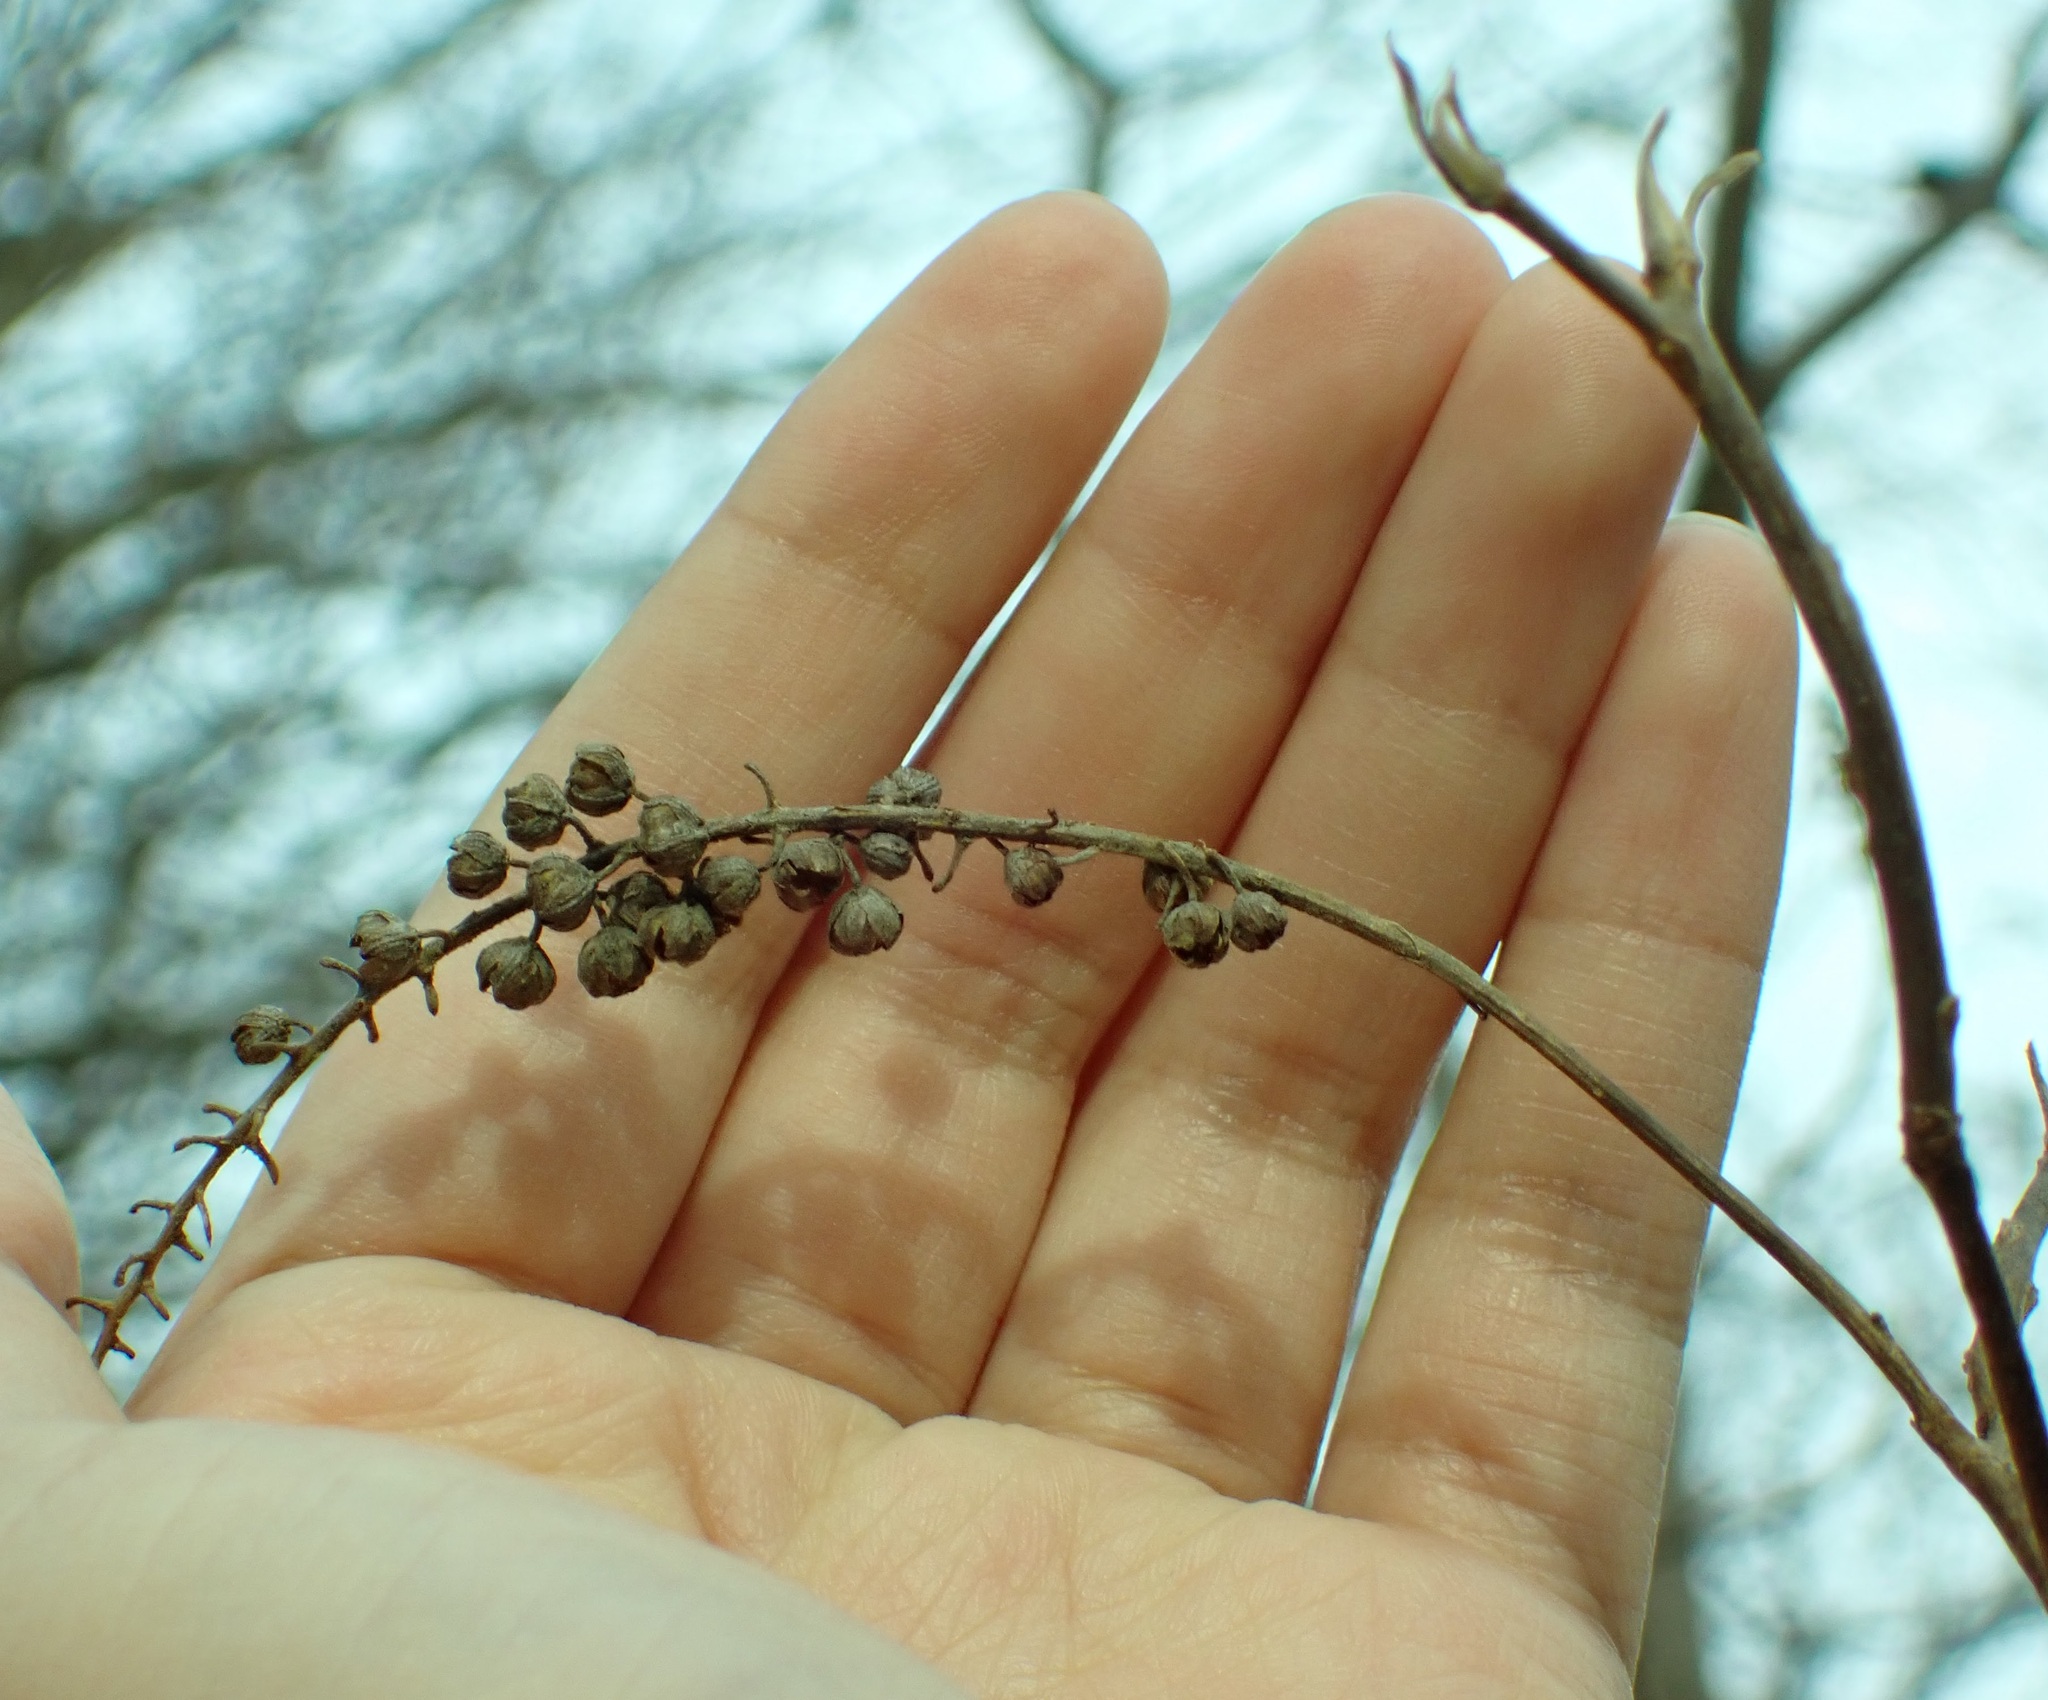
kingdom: Plantae
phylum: Tracheophyta
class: Magnoliopsida
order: Ericales
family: Clethraceae
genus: Clethra
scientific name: Clethra alnifolia
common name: Sweet pepperbush
